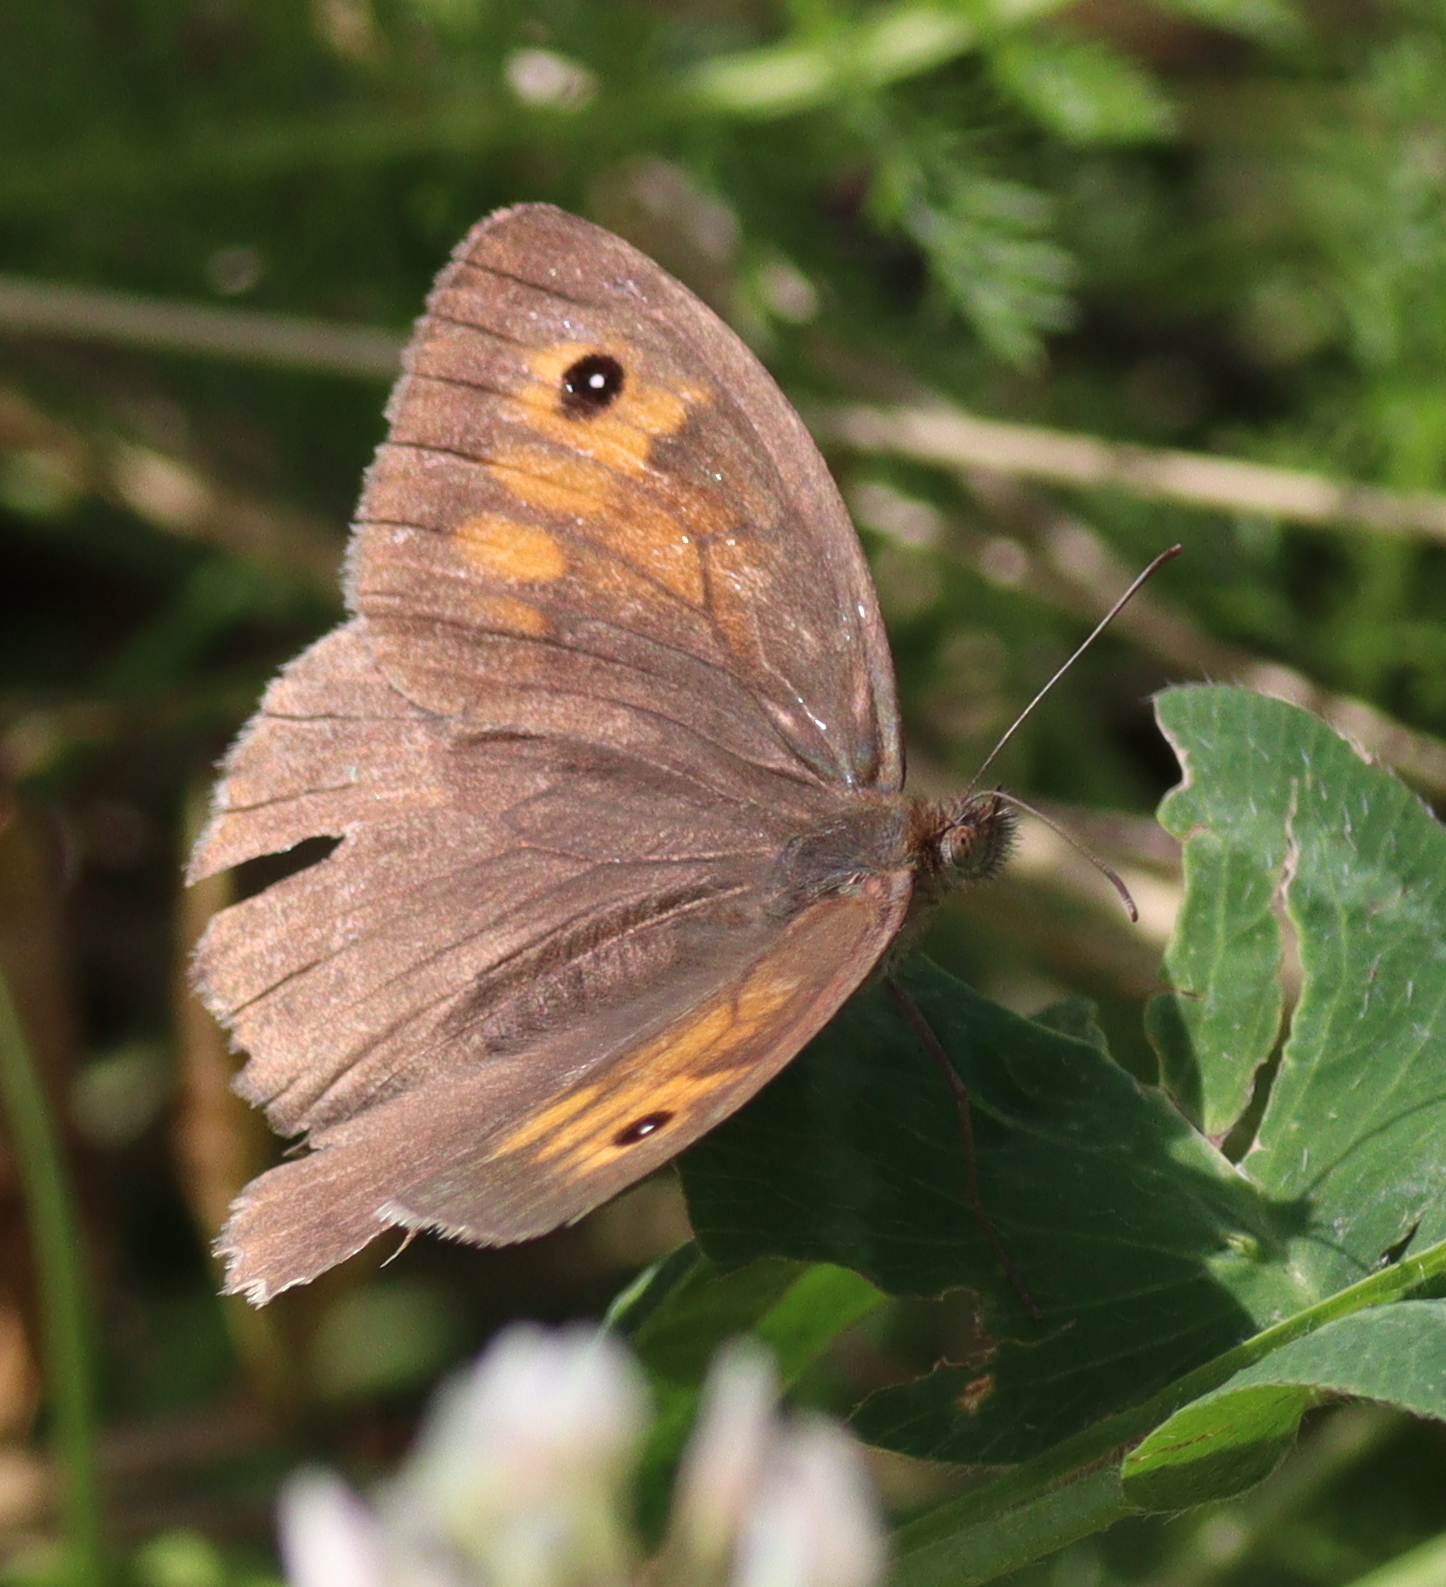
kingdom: Animalia
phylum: Arthropoda
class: Insecta
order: Lepidoptera
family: Nymphalidae
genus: Maniola
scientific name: Maniola jurtina
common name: Meadow brown
